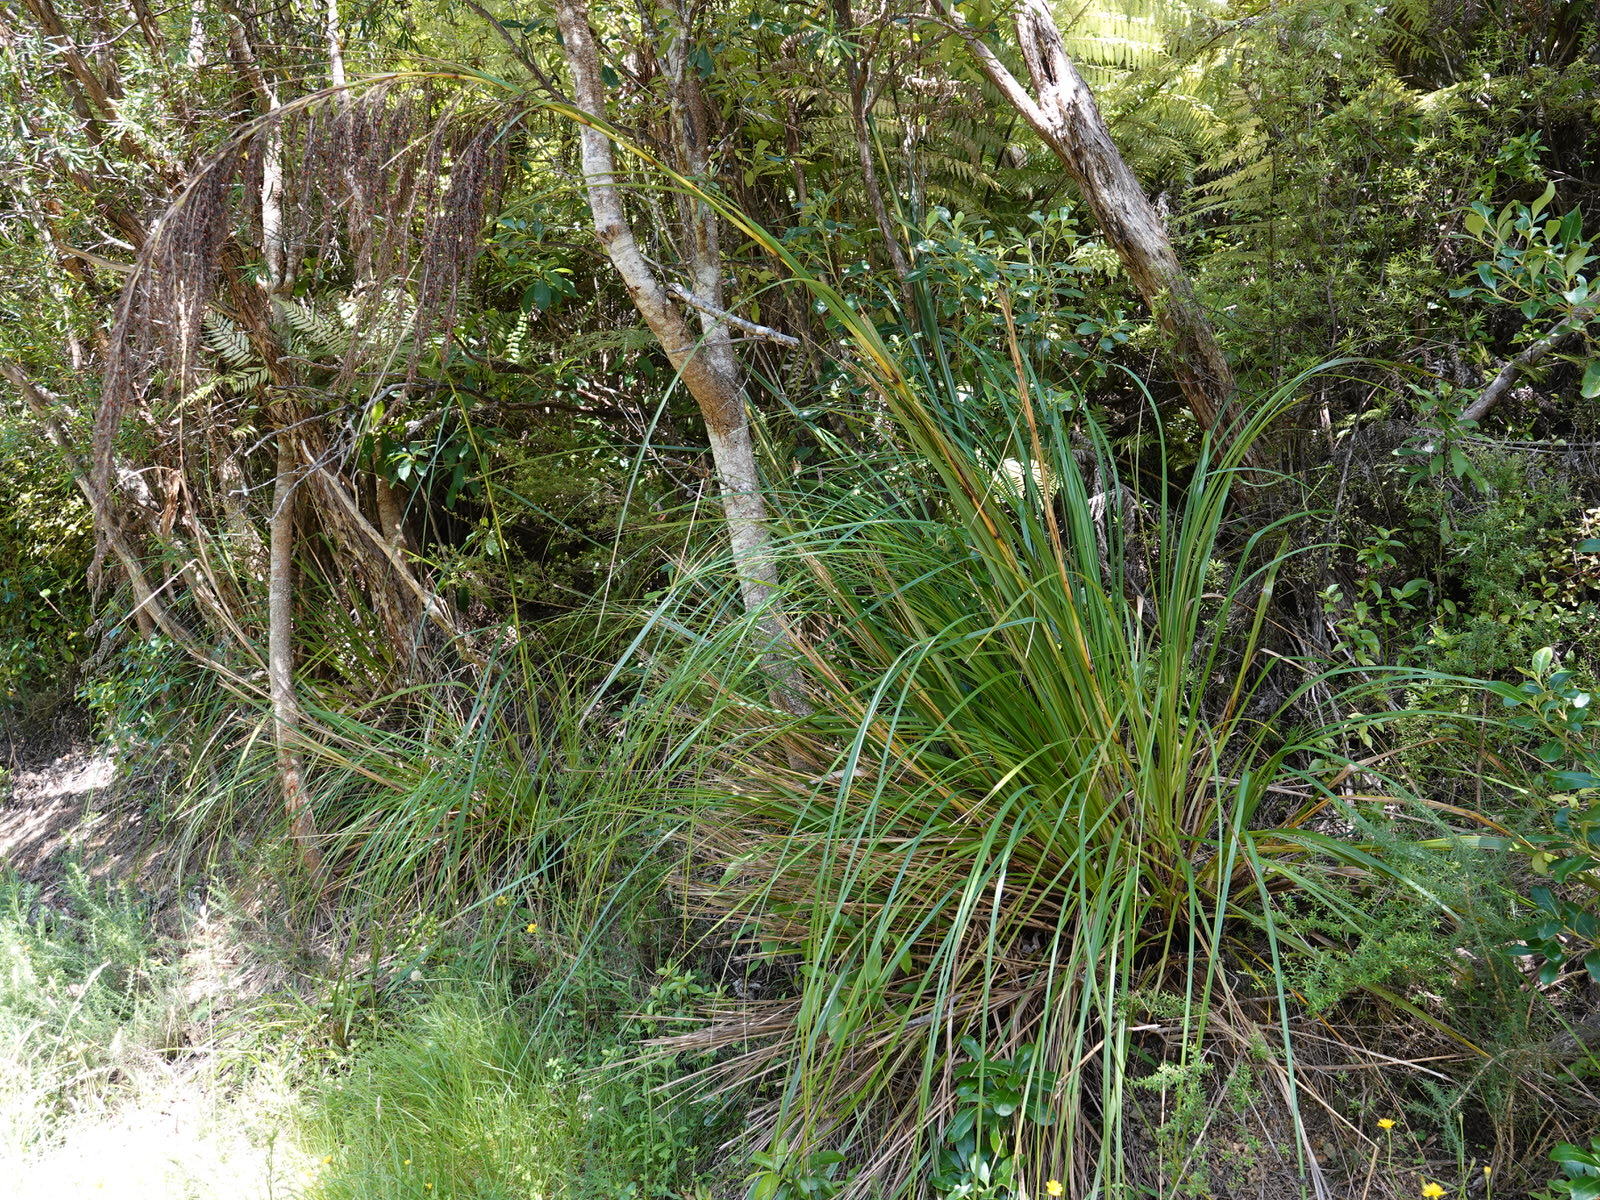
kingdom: Plantae
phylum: Tracheophyta
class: Liliopsida
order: Poales
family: Cyperaceae
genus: Gahnia
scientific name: Gahnia setifolia
